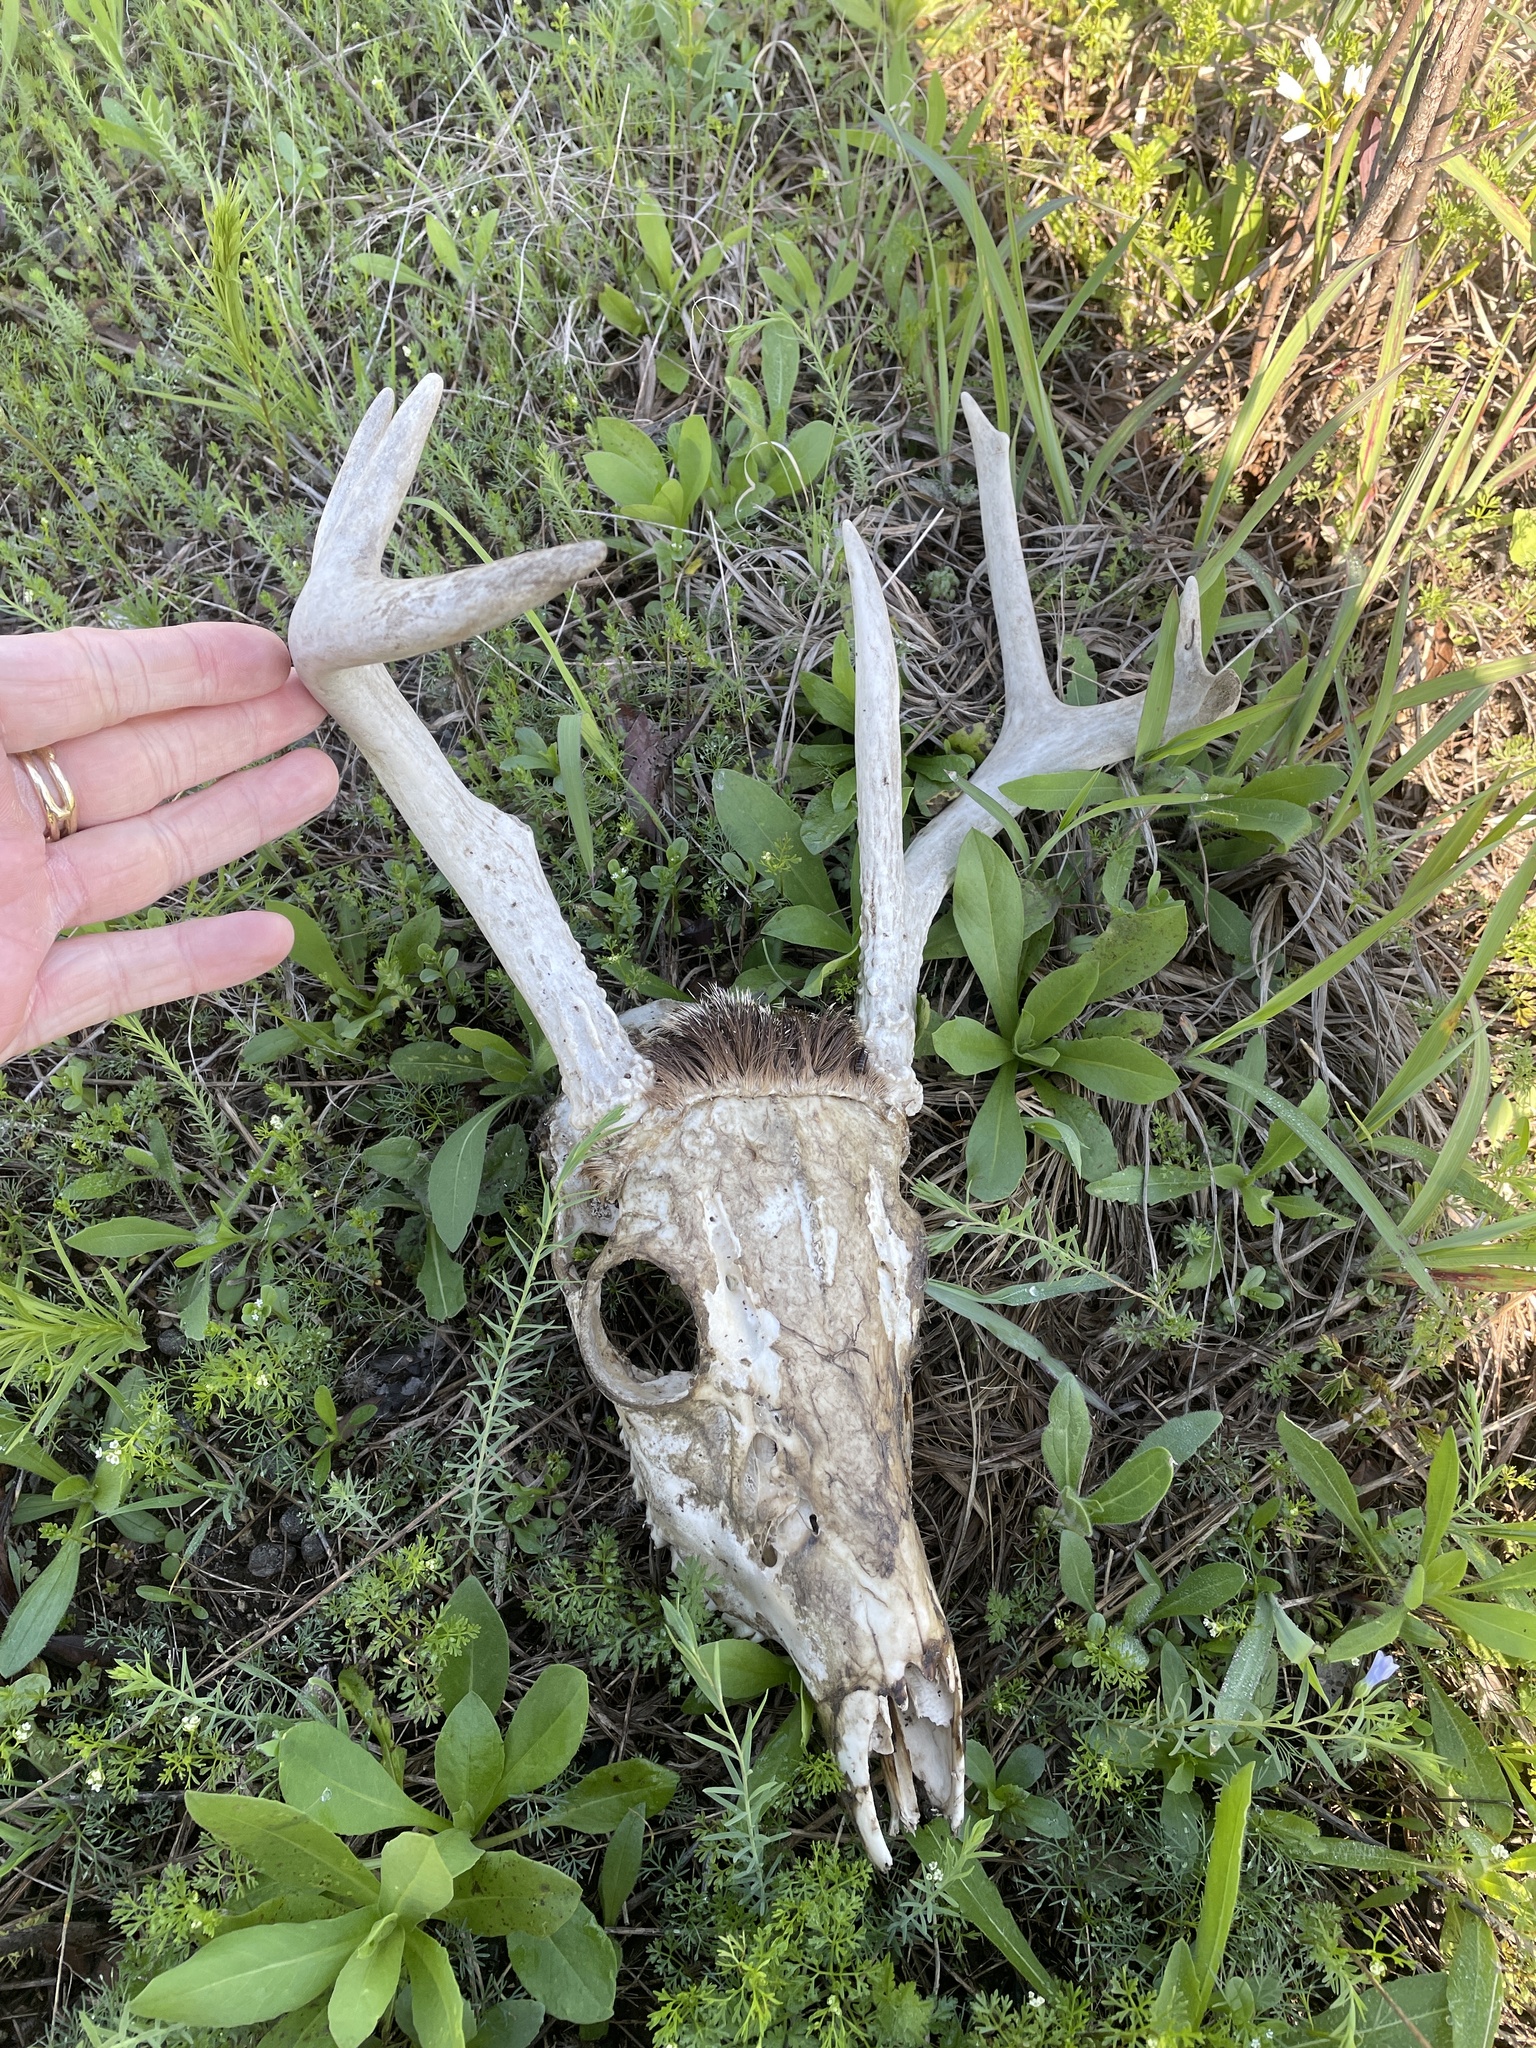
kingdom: Animalia
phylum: Chordata
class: Mammalia
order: Artiodactyla
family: Cervidae
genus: Odocoileus
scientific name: Odocoileus virginianus
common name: White-tailed deer
